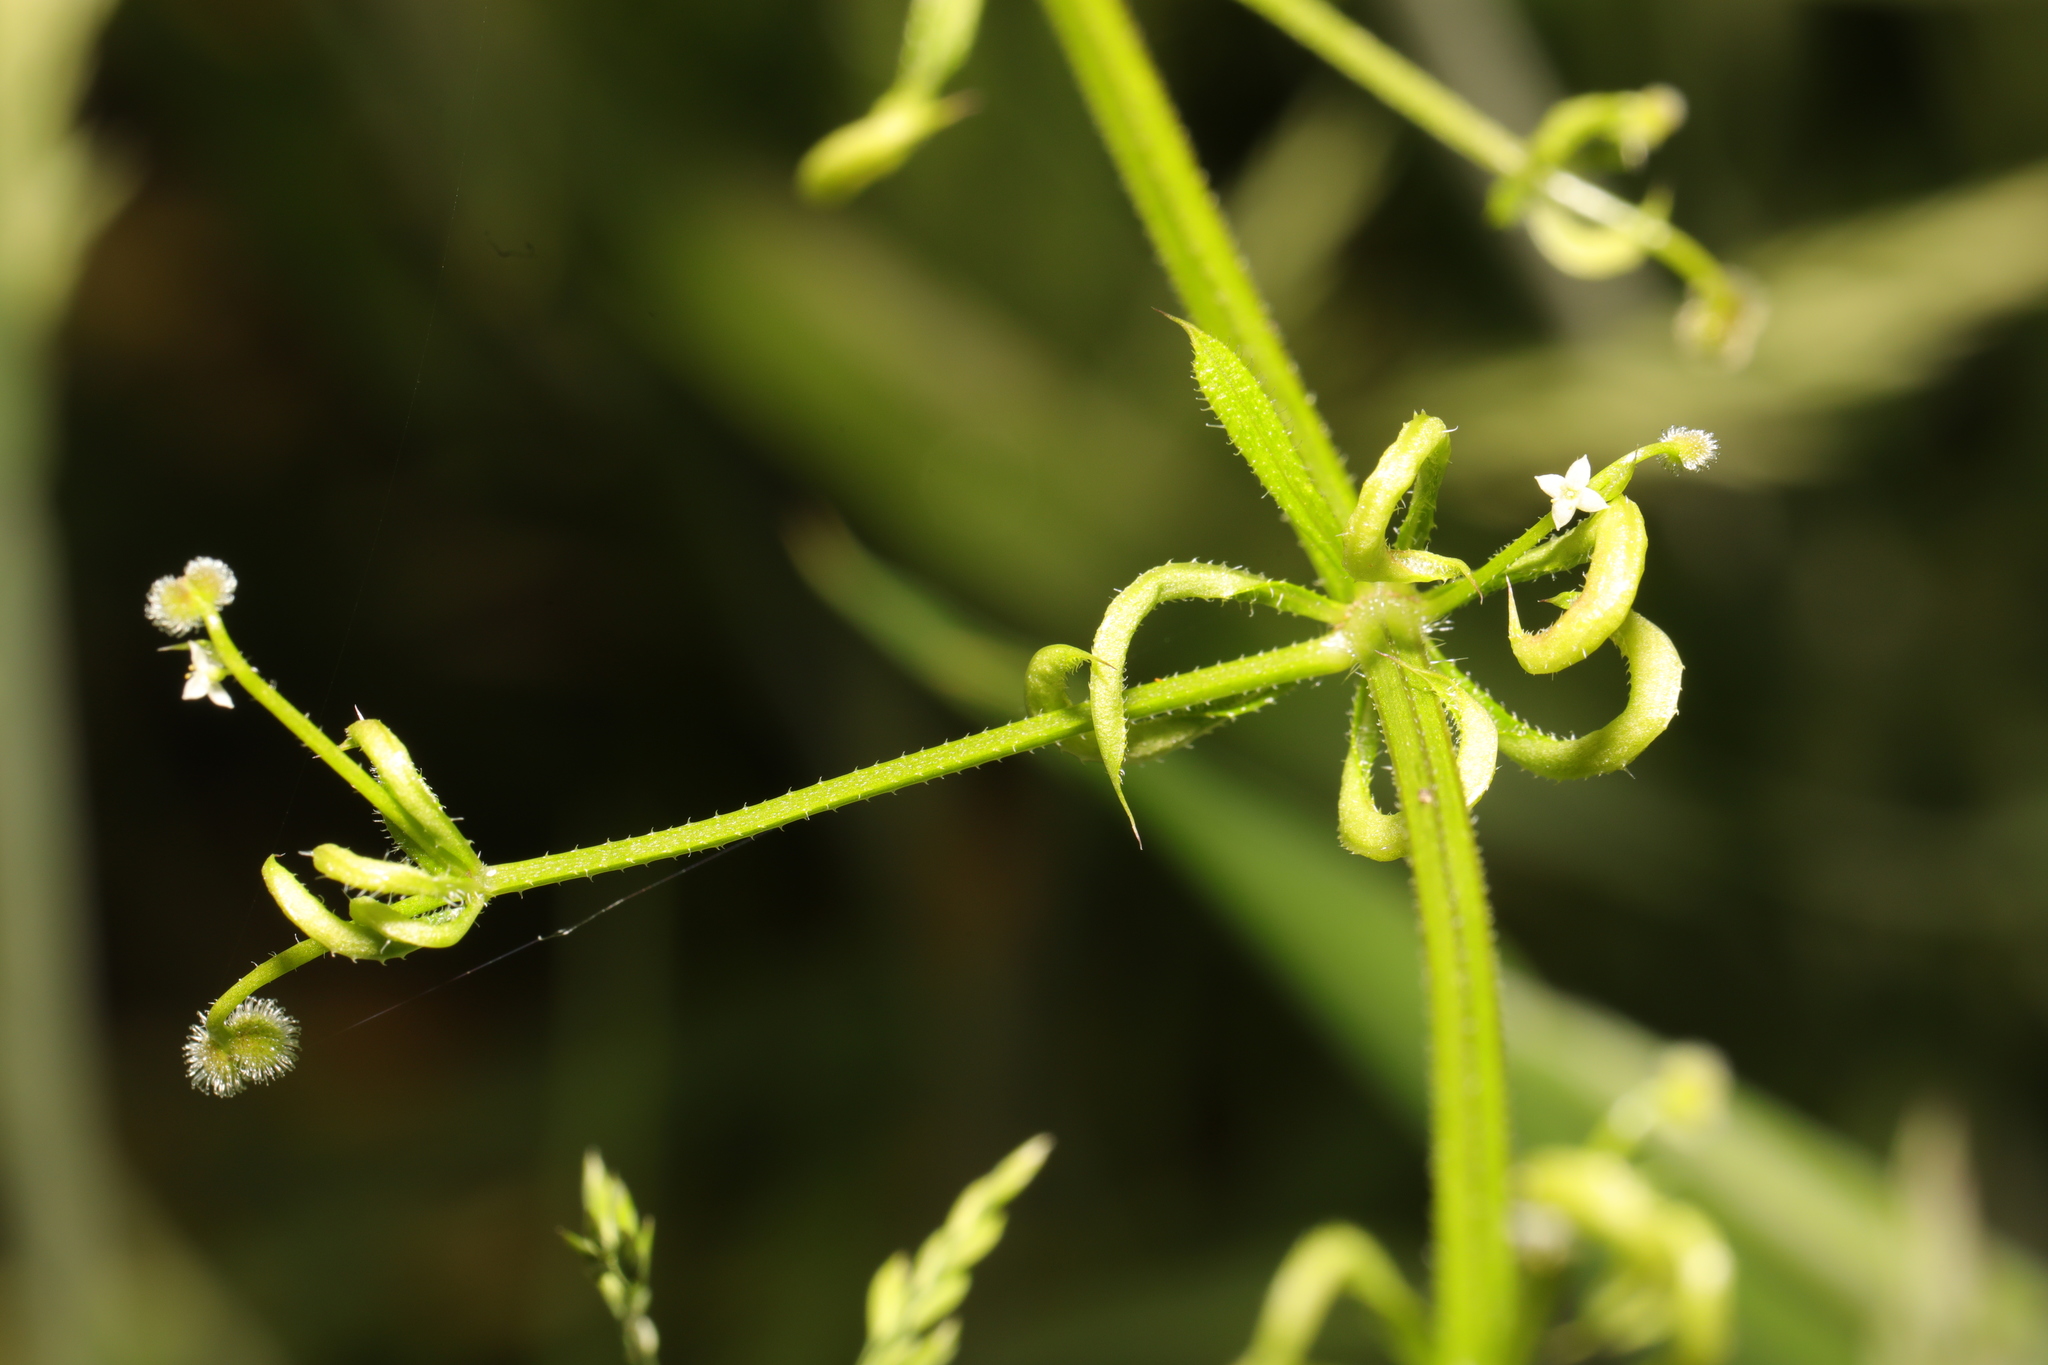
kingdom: Animalia
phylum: Arthropoda
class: Arachnida
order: Trombidiformes
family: Eriophyidae
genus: Cecidophyes
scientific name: Cecidophyes rouhollahi
